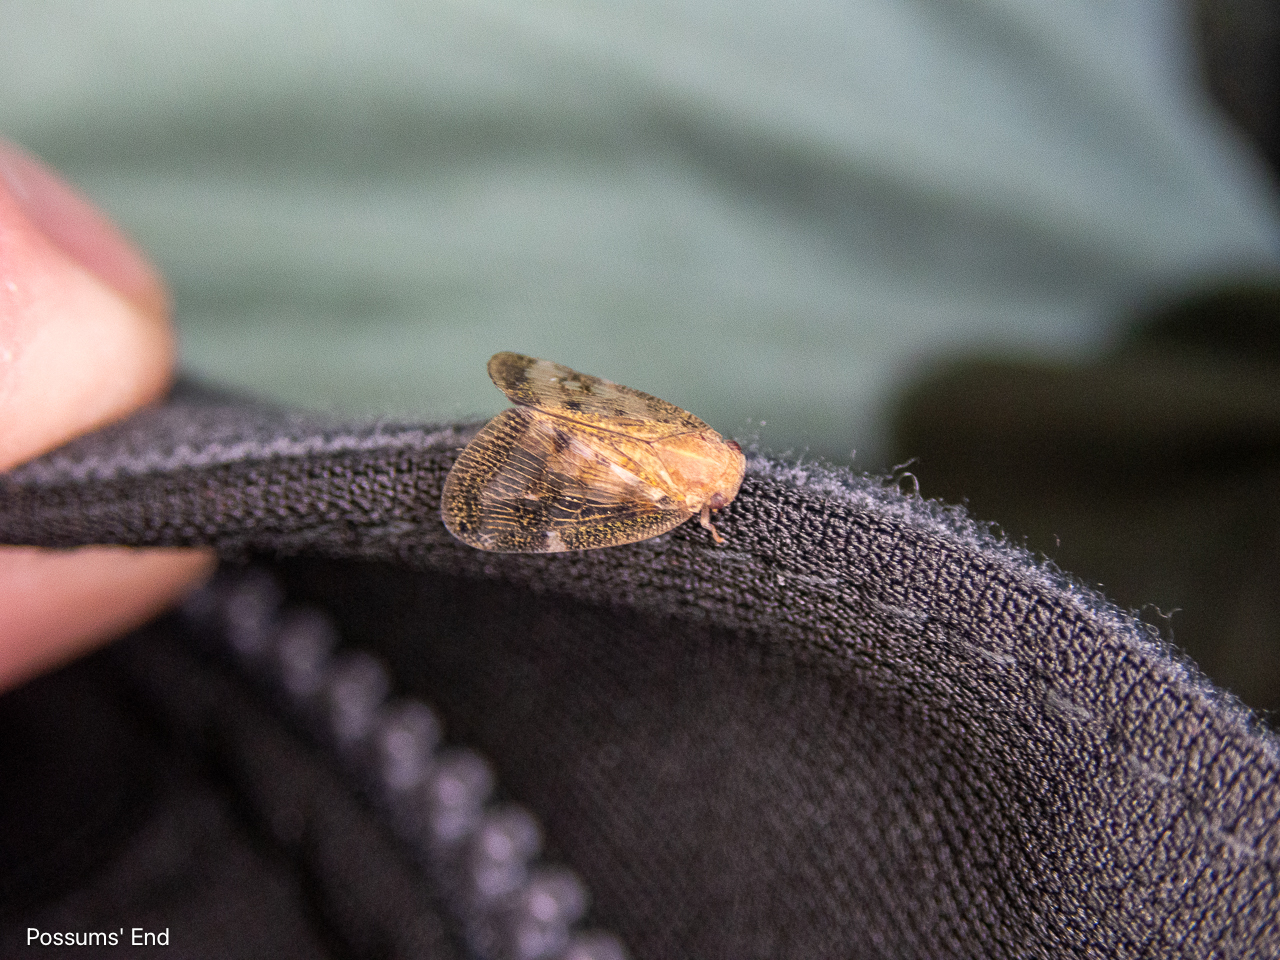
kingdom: Animalia
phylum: Arthropoda
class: Insecta
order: Hemiptera
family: Ricaniidae
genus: Scolypopa
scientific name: Scolypopa australis
